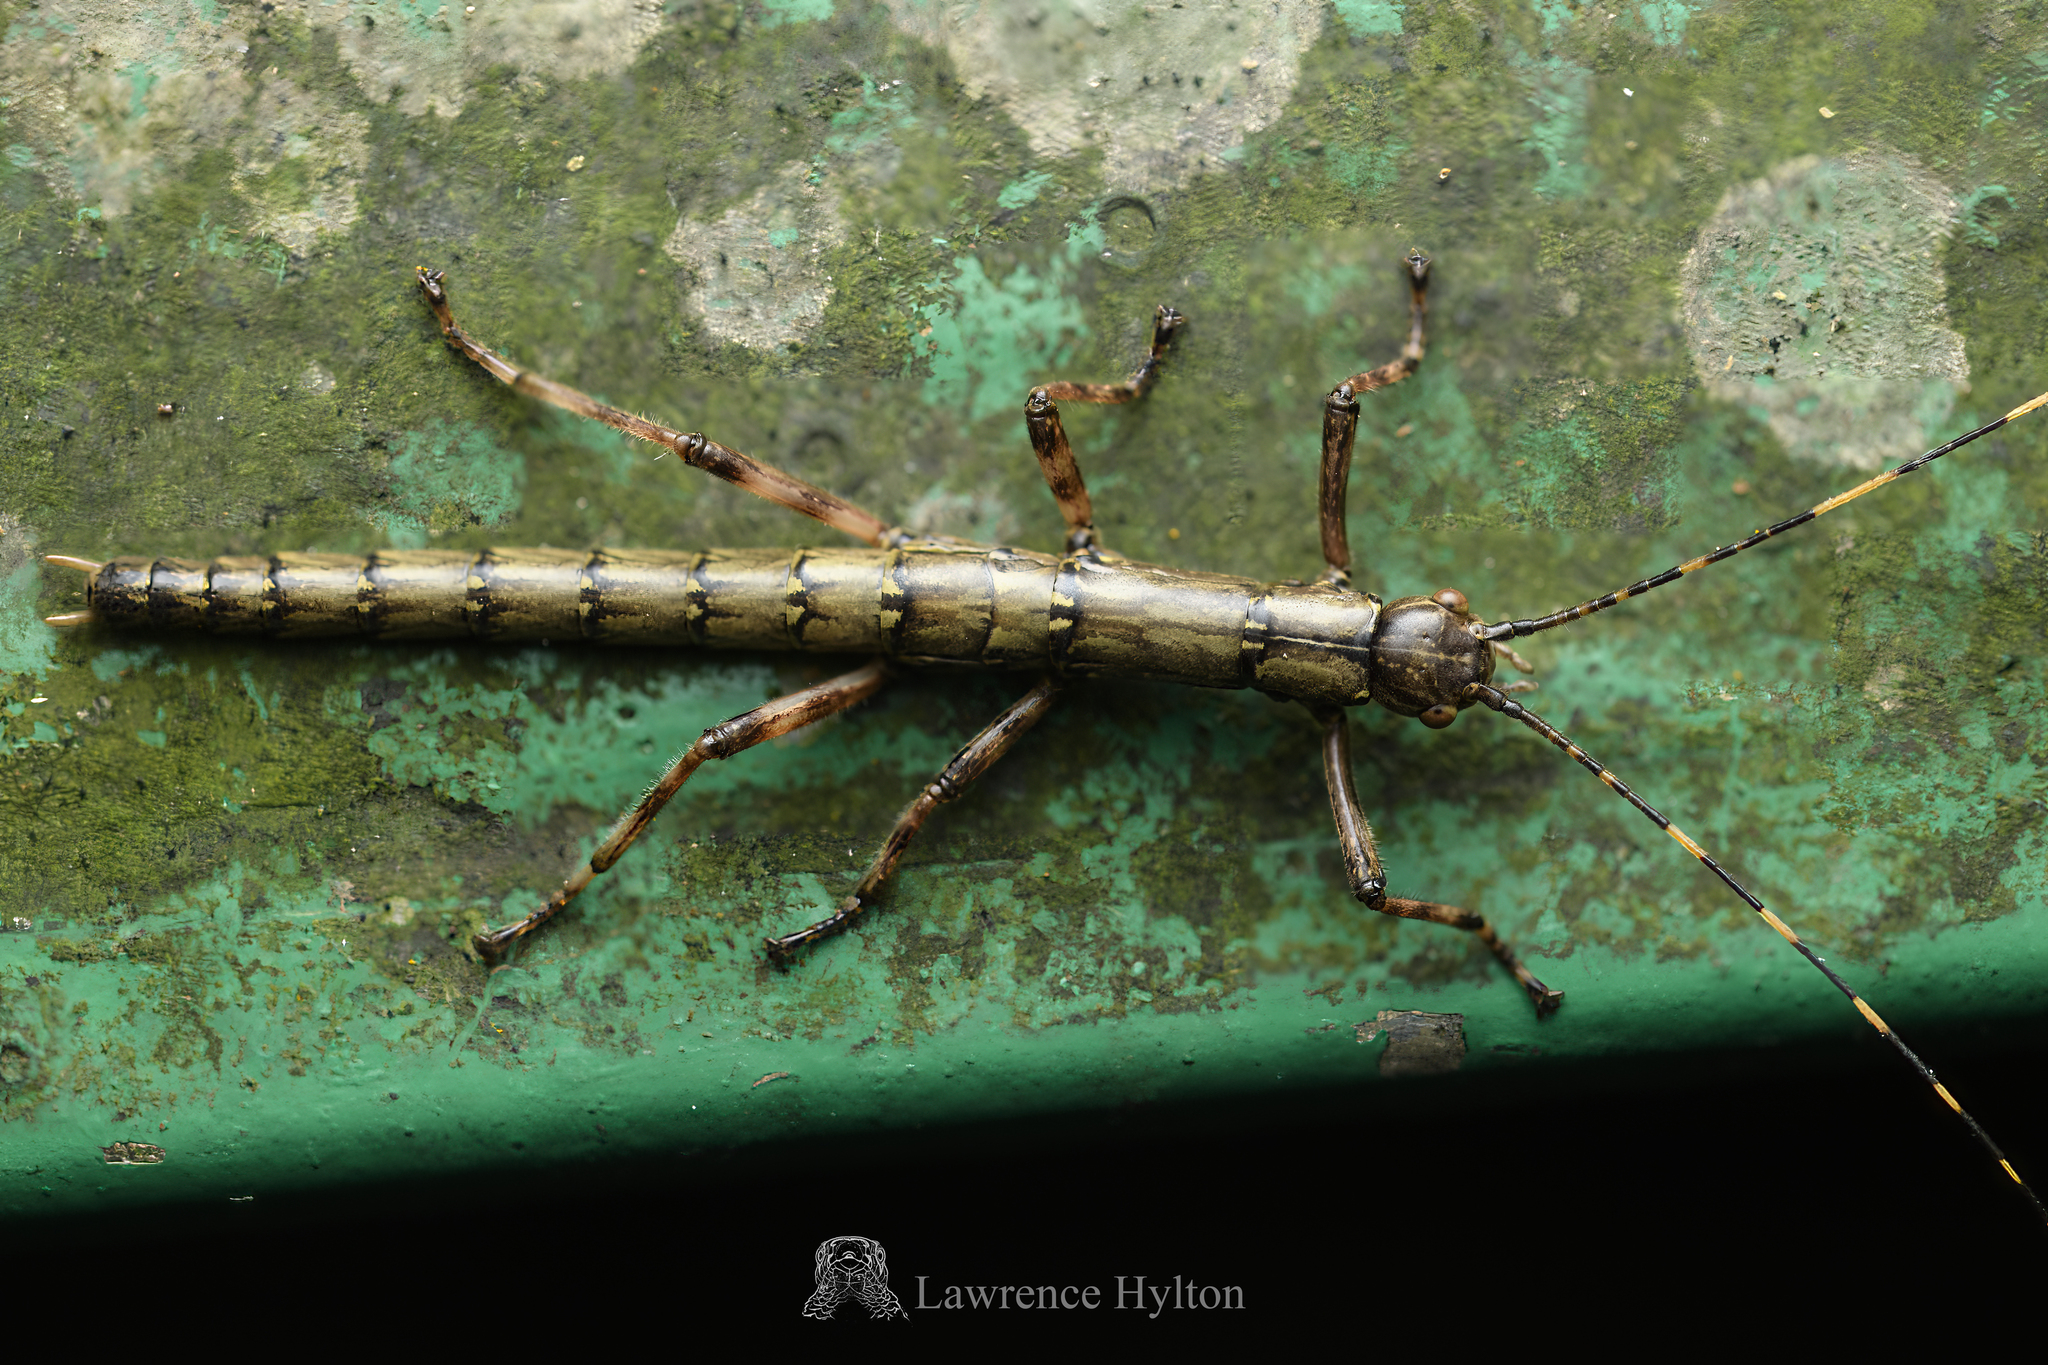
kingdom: Animalia
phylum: Arthropoda
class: Insecta
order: Phasmida
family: Aschiphasmatidae
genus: Dajaca
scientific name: Dajaca napolovi
